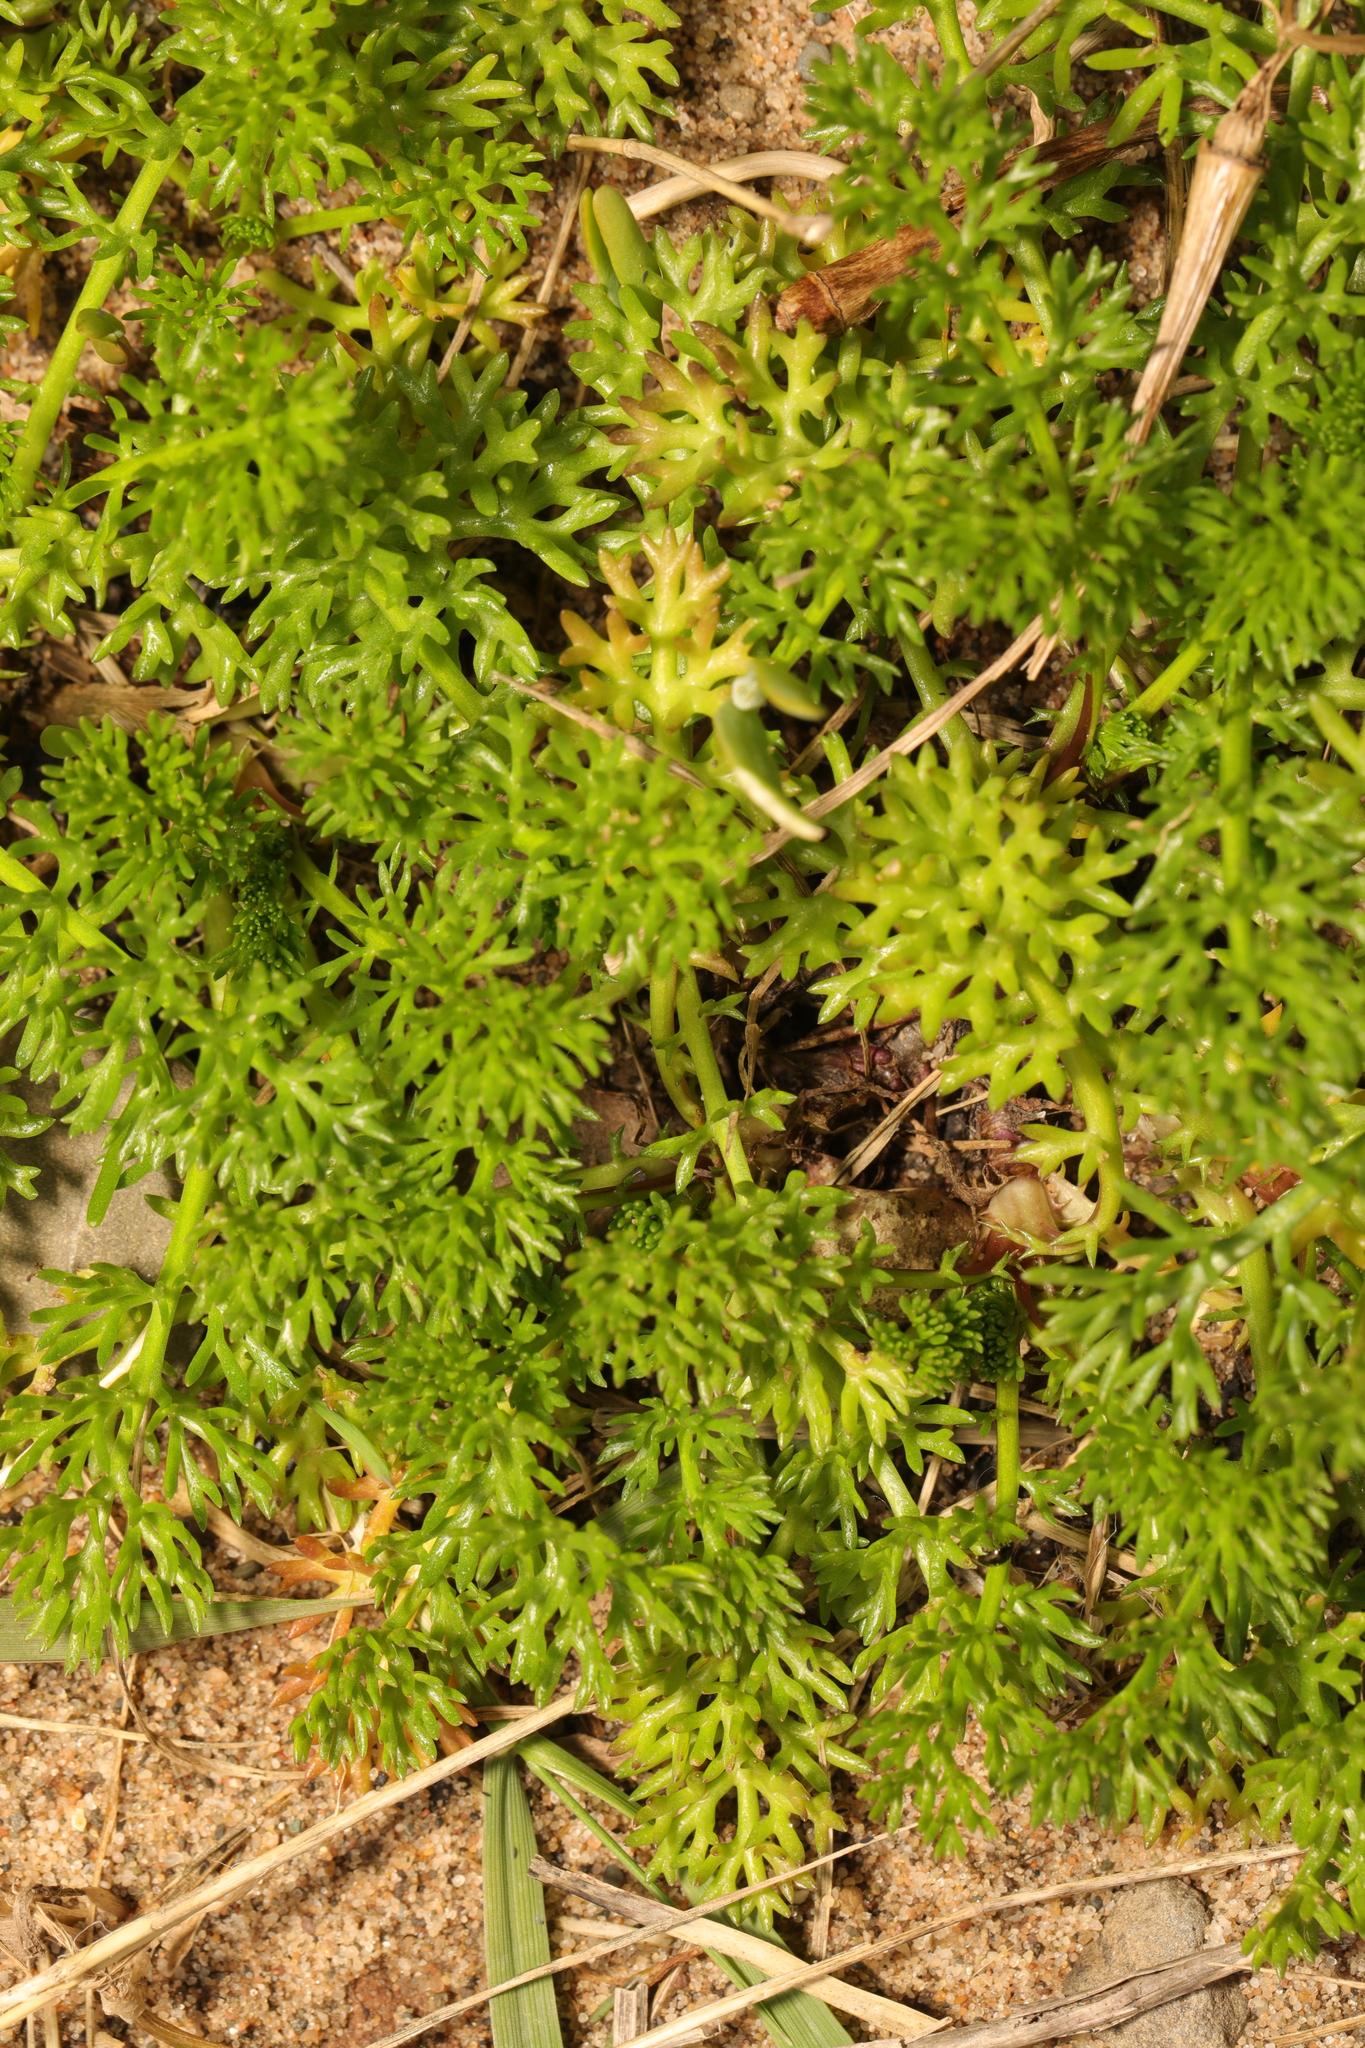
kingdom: Plantae
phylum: Tracheophyta
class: Magnoliopsida
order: Asterales
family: Asteraceae
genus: Tripleurospermum
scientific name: Tripleurospermum maritimum
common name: Sea mayweed
